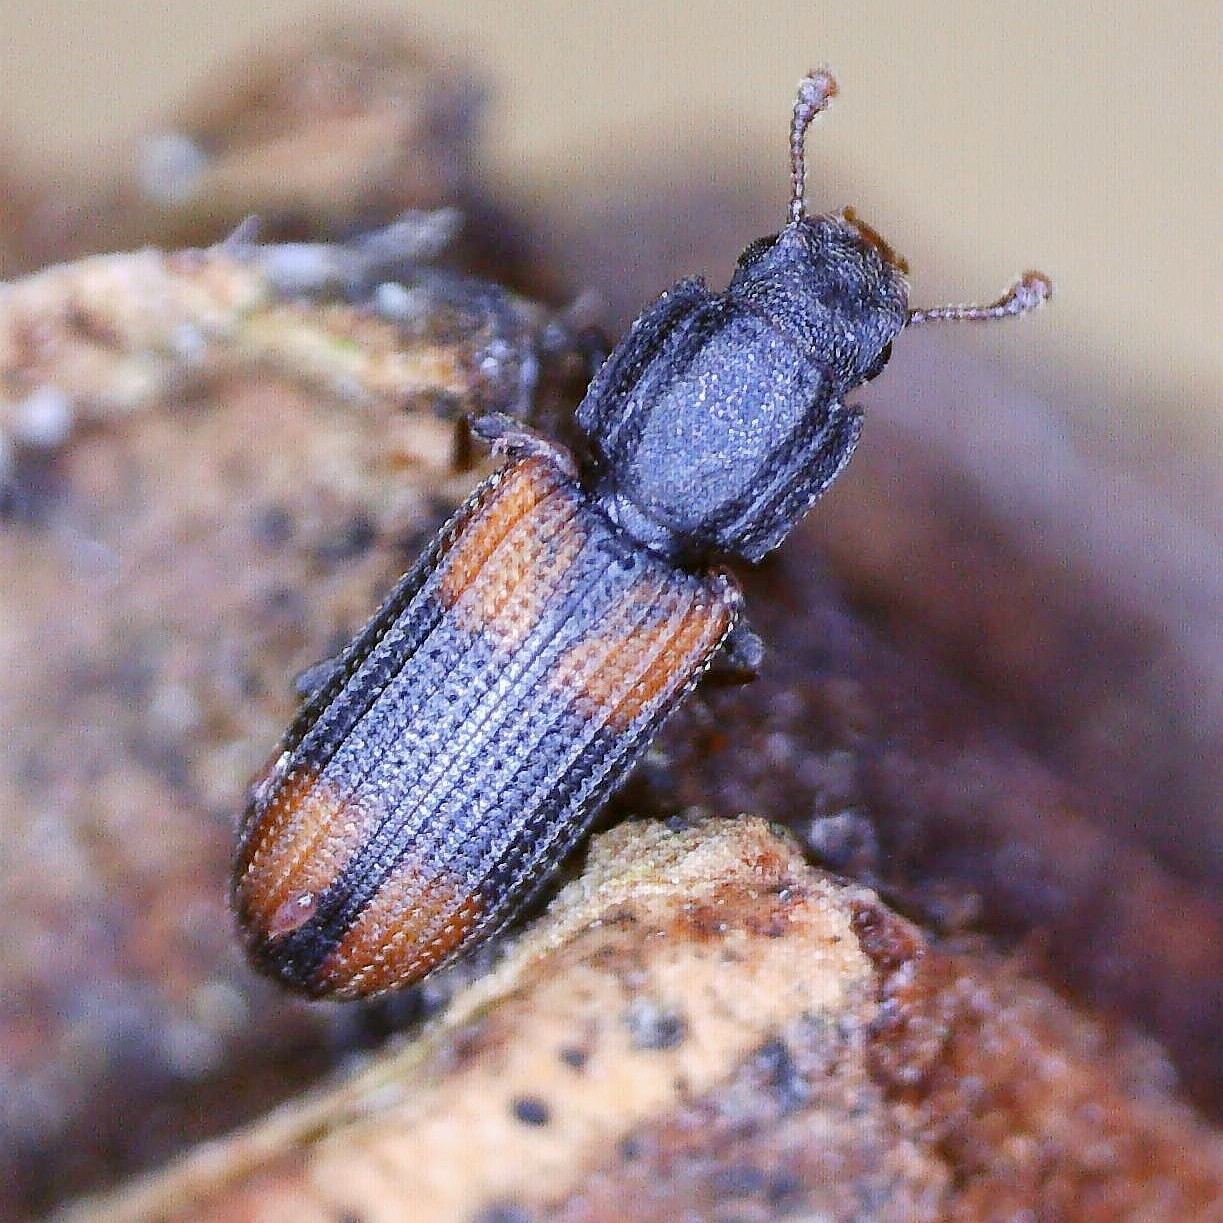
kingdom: Animalia
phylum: Arthropoda
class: Insecta
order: Coleoptera
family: Zopheridae
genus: Bitoma
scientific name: Bitoma crenata
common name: Bark beetle
